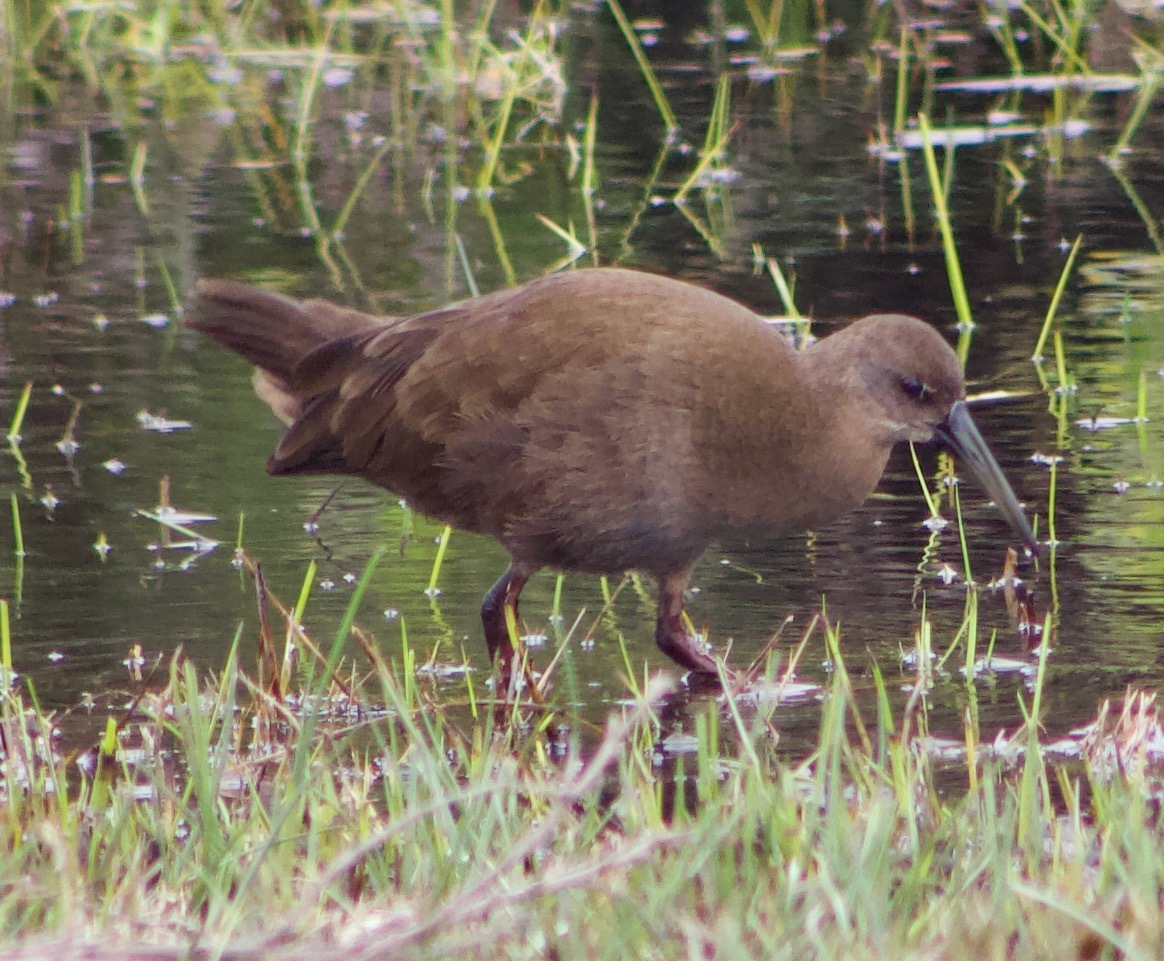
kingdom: Animalia
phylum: Chordata
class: Aves
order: Gruiformes
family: Rallidae
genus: Pardirallus
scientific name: Pardirallus sanguinolentus
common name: Plumbeous rail
